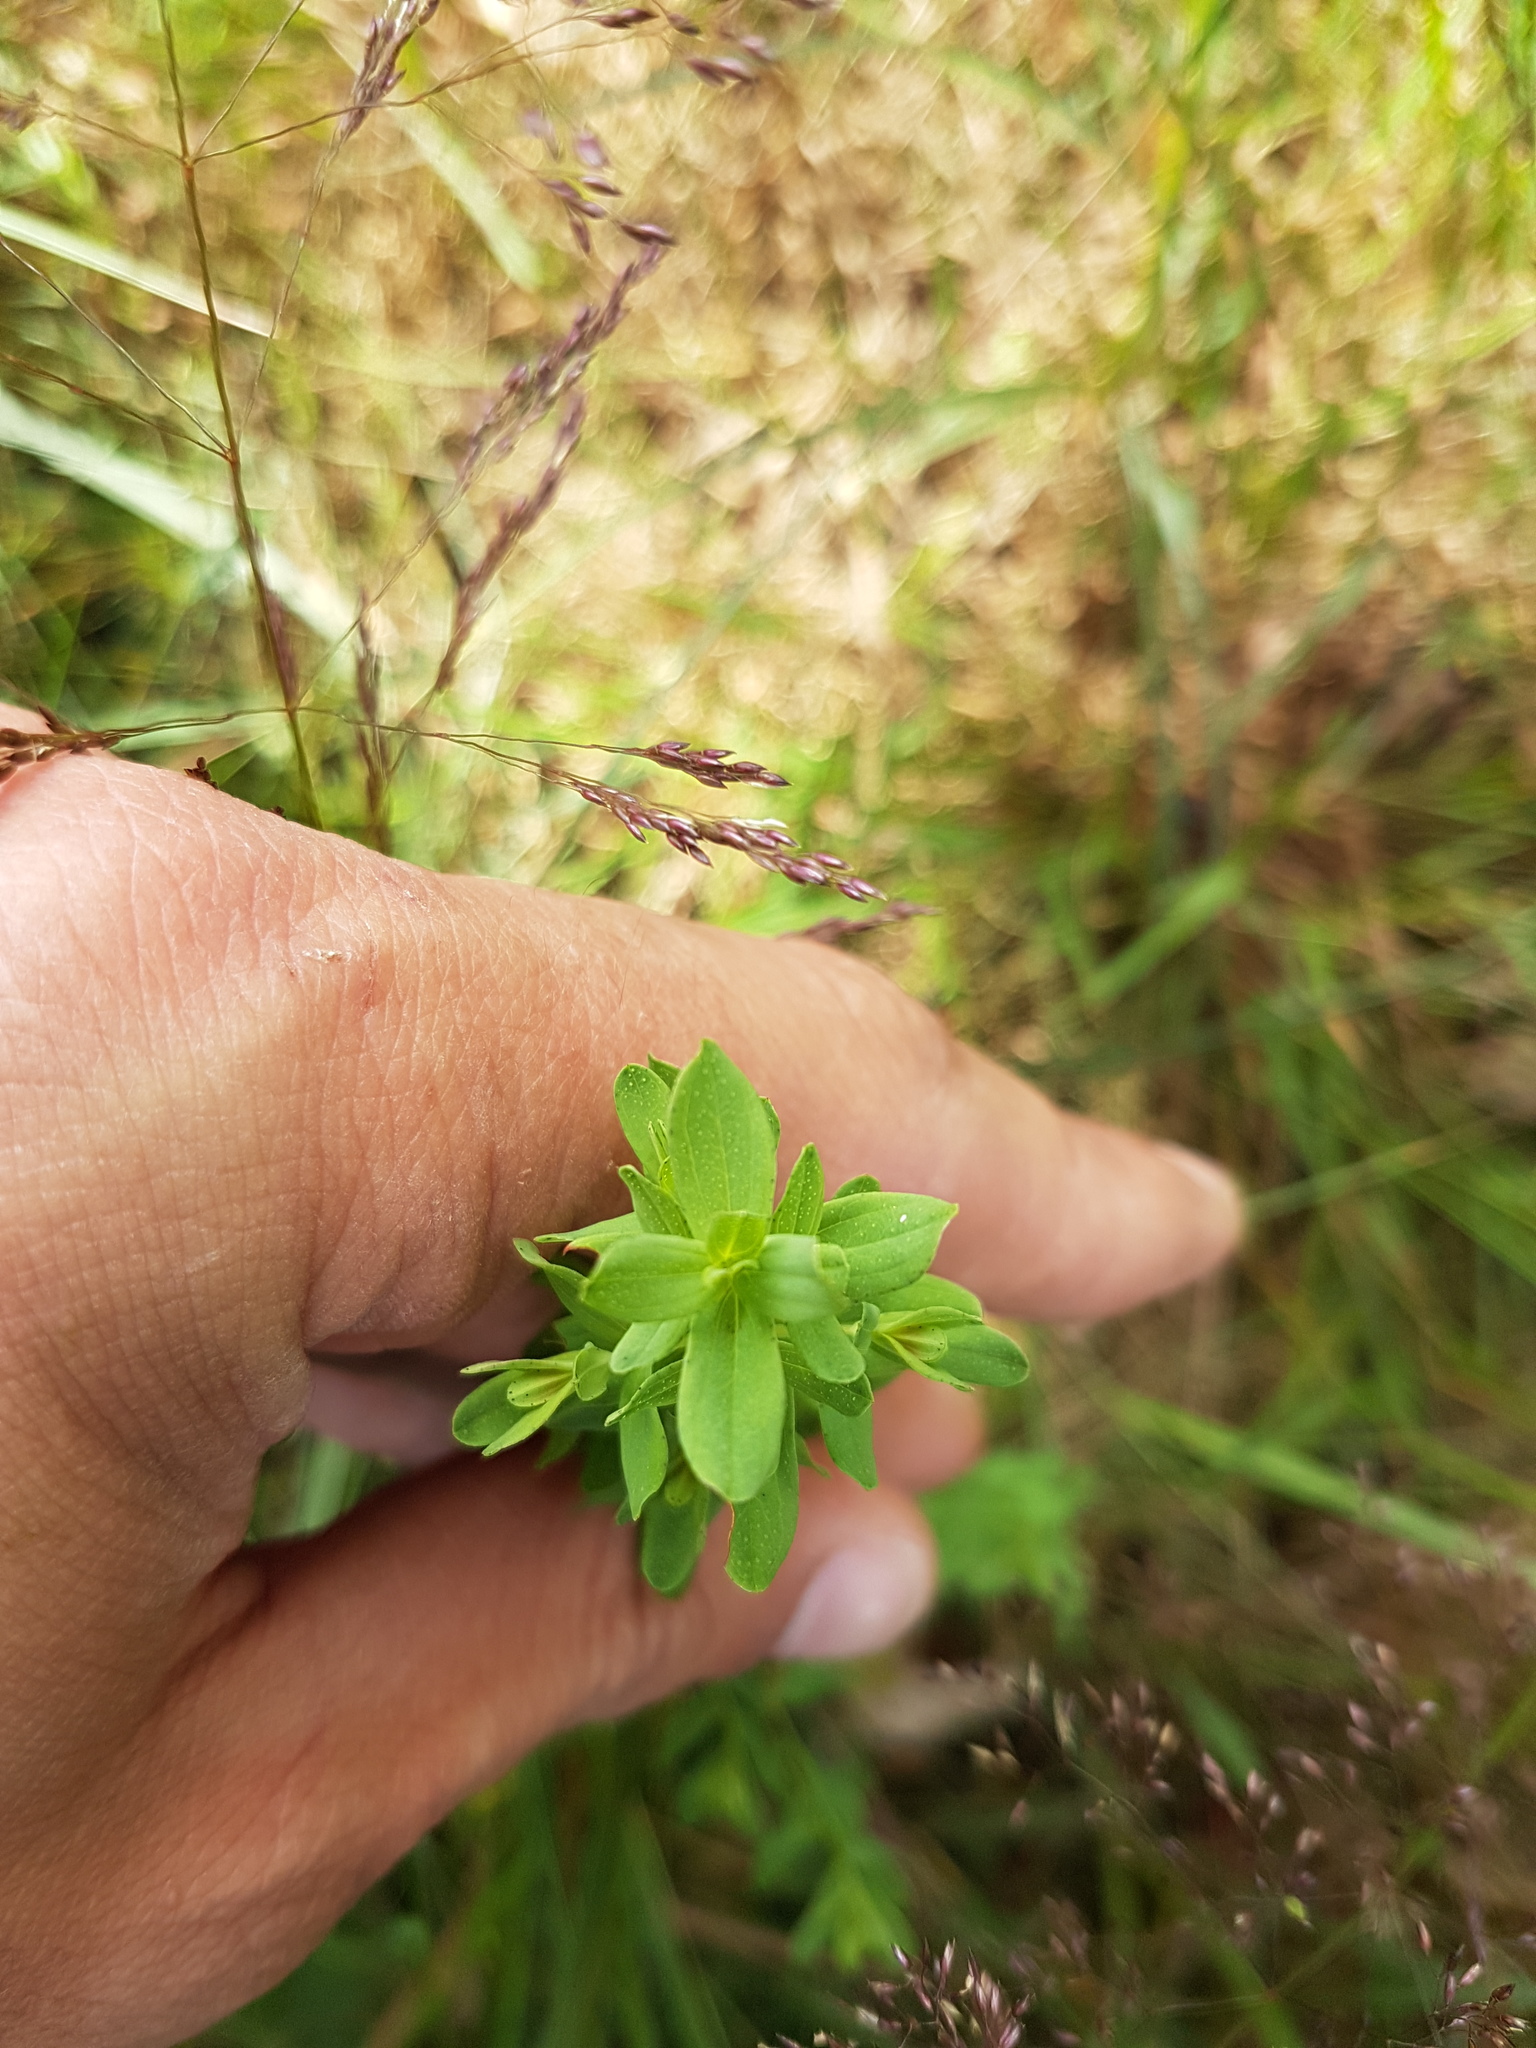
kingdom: Plantae
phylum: Tracheophyta
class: Magnoliopsida
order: Malpighiales
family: Hypericaceae
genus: Hypericum
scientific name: Hypericum perforatum
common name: Common st. johnswort
